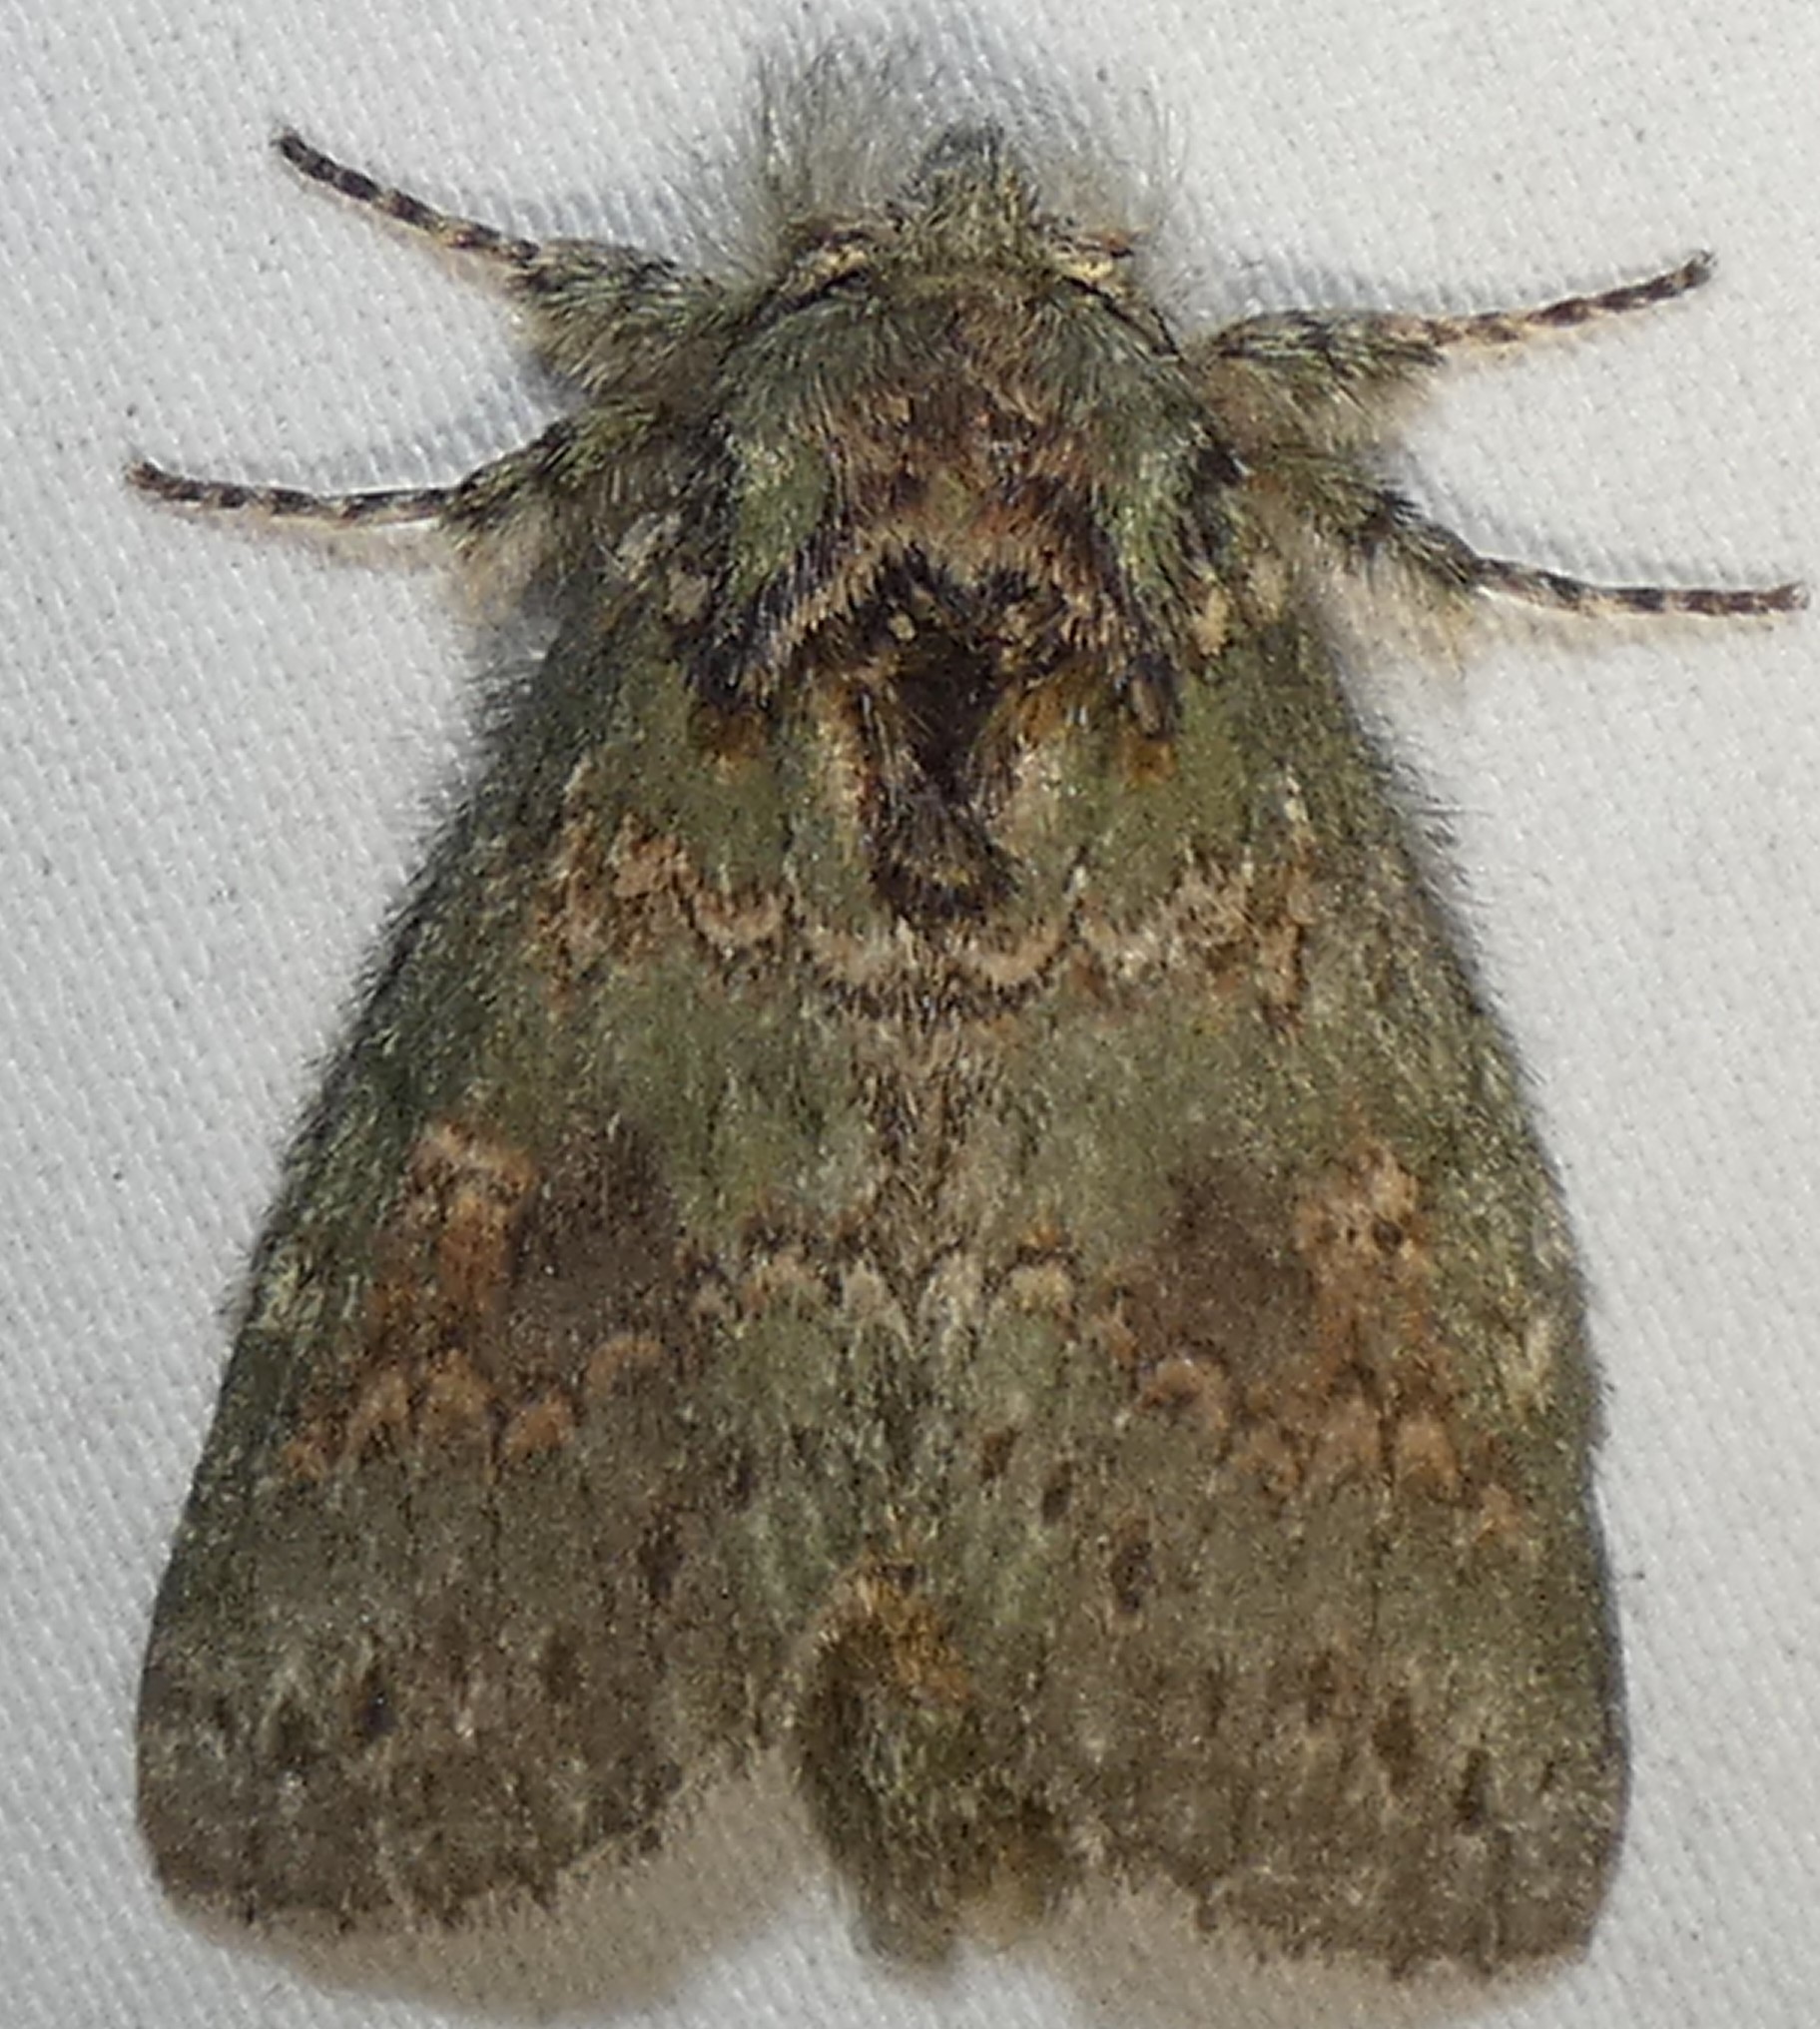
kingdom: Animalia
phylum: Arthropoda
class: Insecta
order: Lepidoptera
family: Notodontidae
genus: Disphragis
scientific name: Disphragis Cecrita biundata
